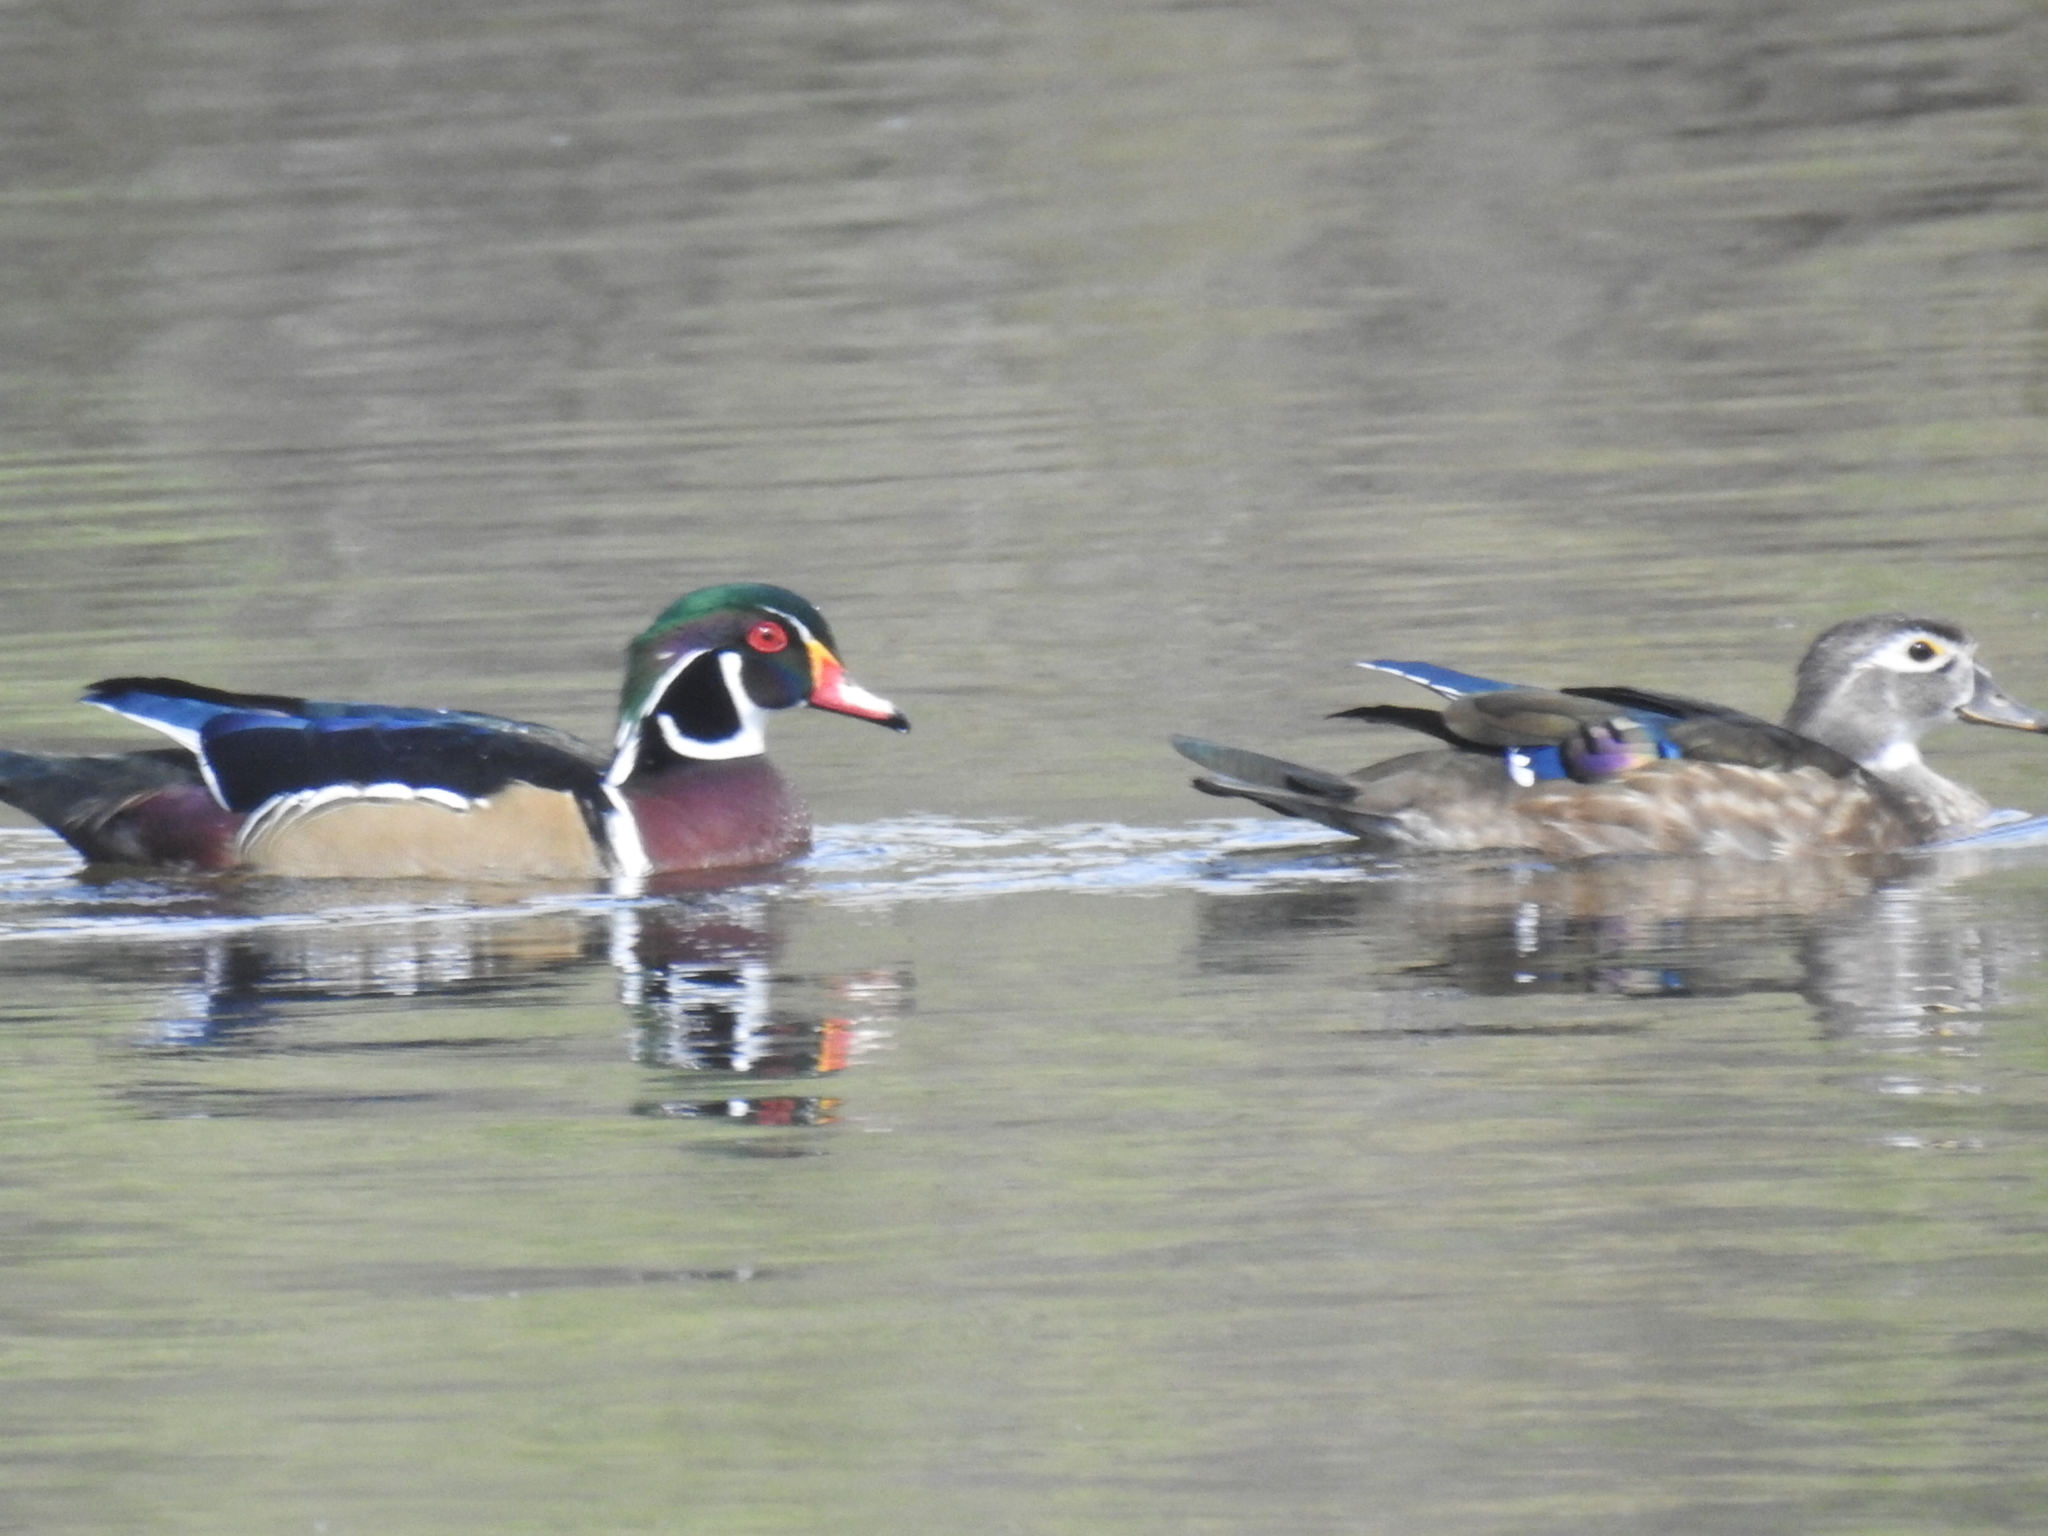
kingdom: Animalia
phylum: Chordata
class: Aves
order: Anseriformes
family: Anatidae
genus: Aix
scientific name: Aix sponsa
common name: Wood duck
